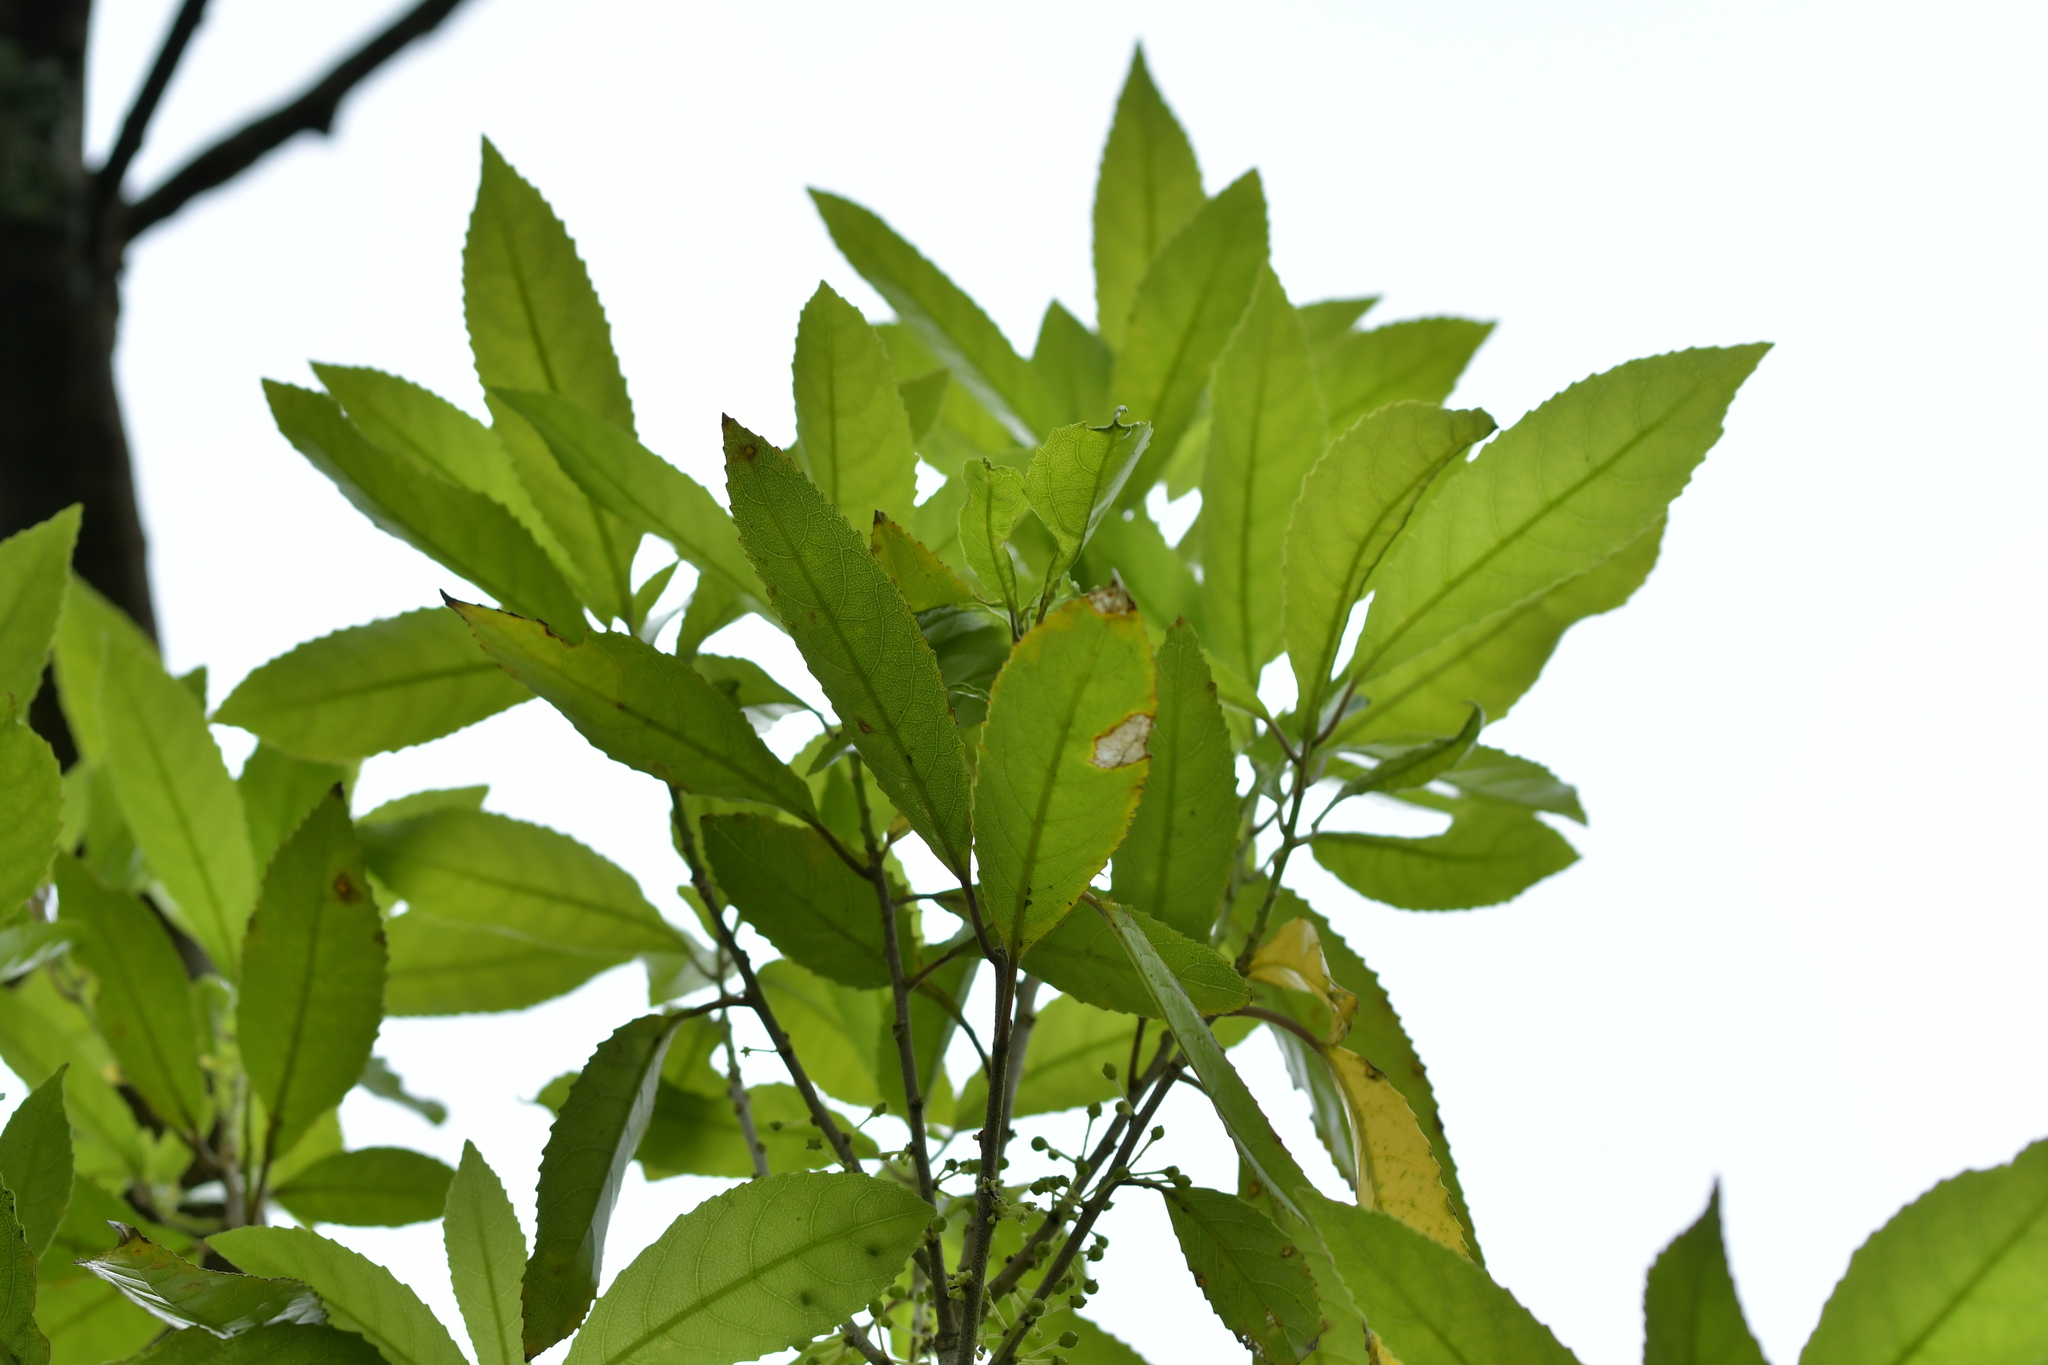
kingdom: Plantae
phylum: Tracheophyta
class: Magnoliopsida
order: Malpighiales
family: Violaceae
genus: Melicytus
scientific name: Melicytus ramiflorus
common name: Mahoe
